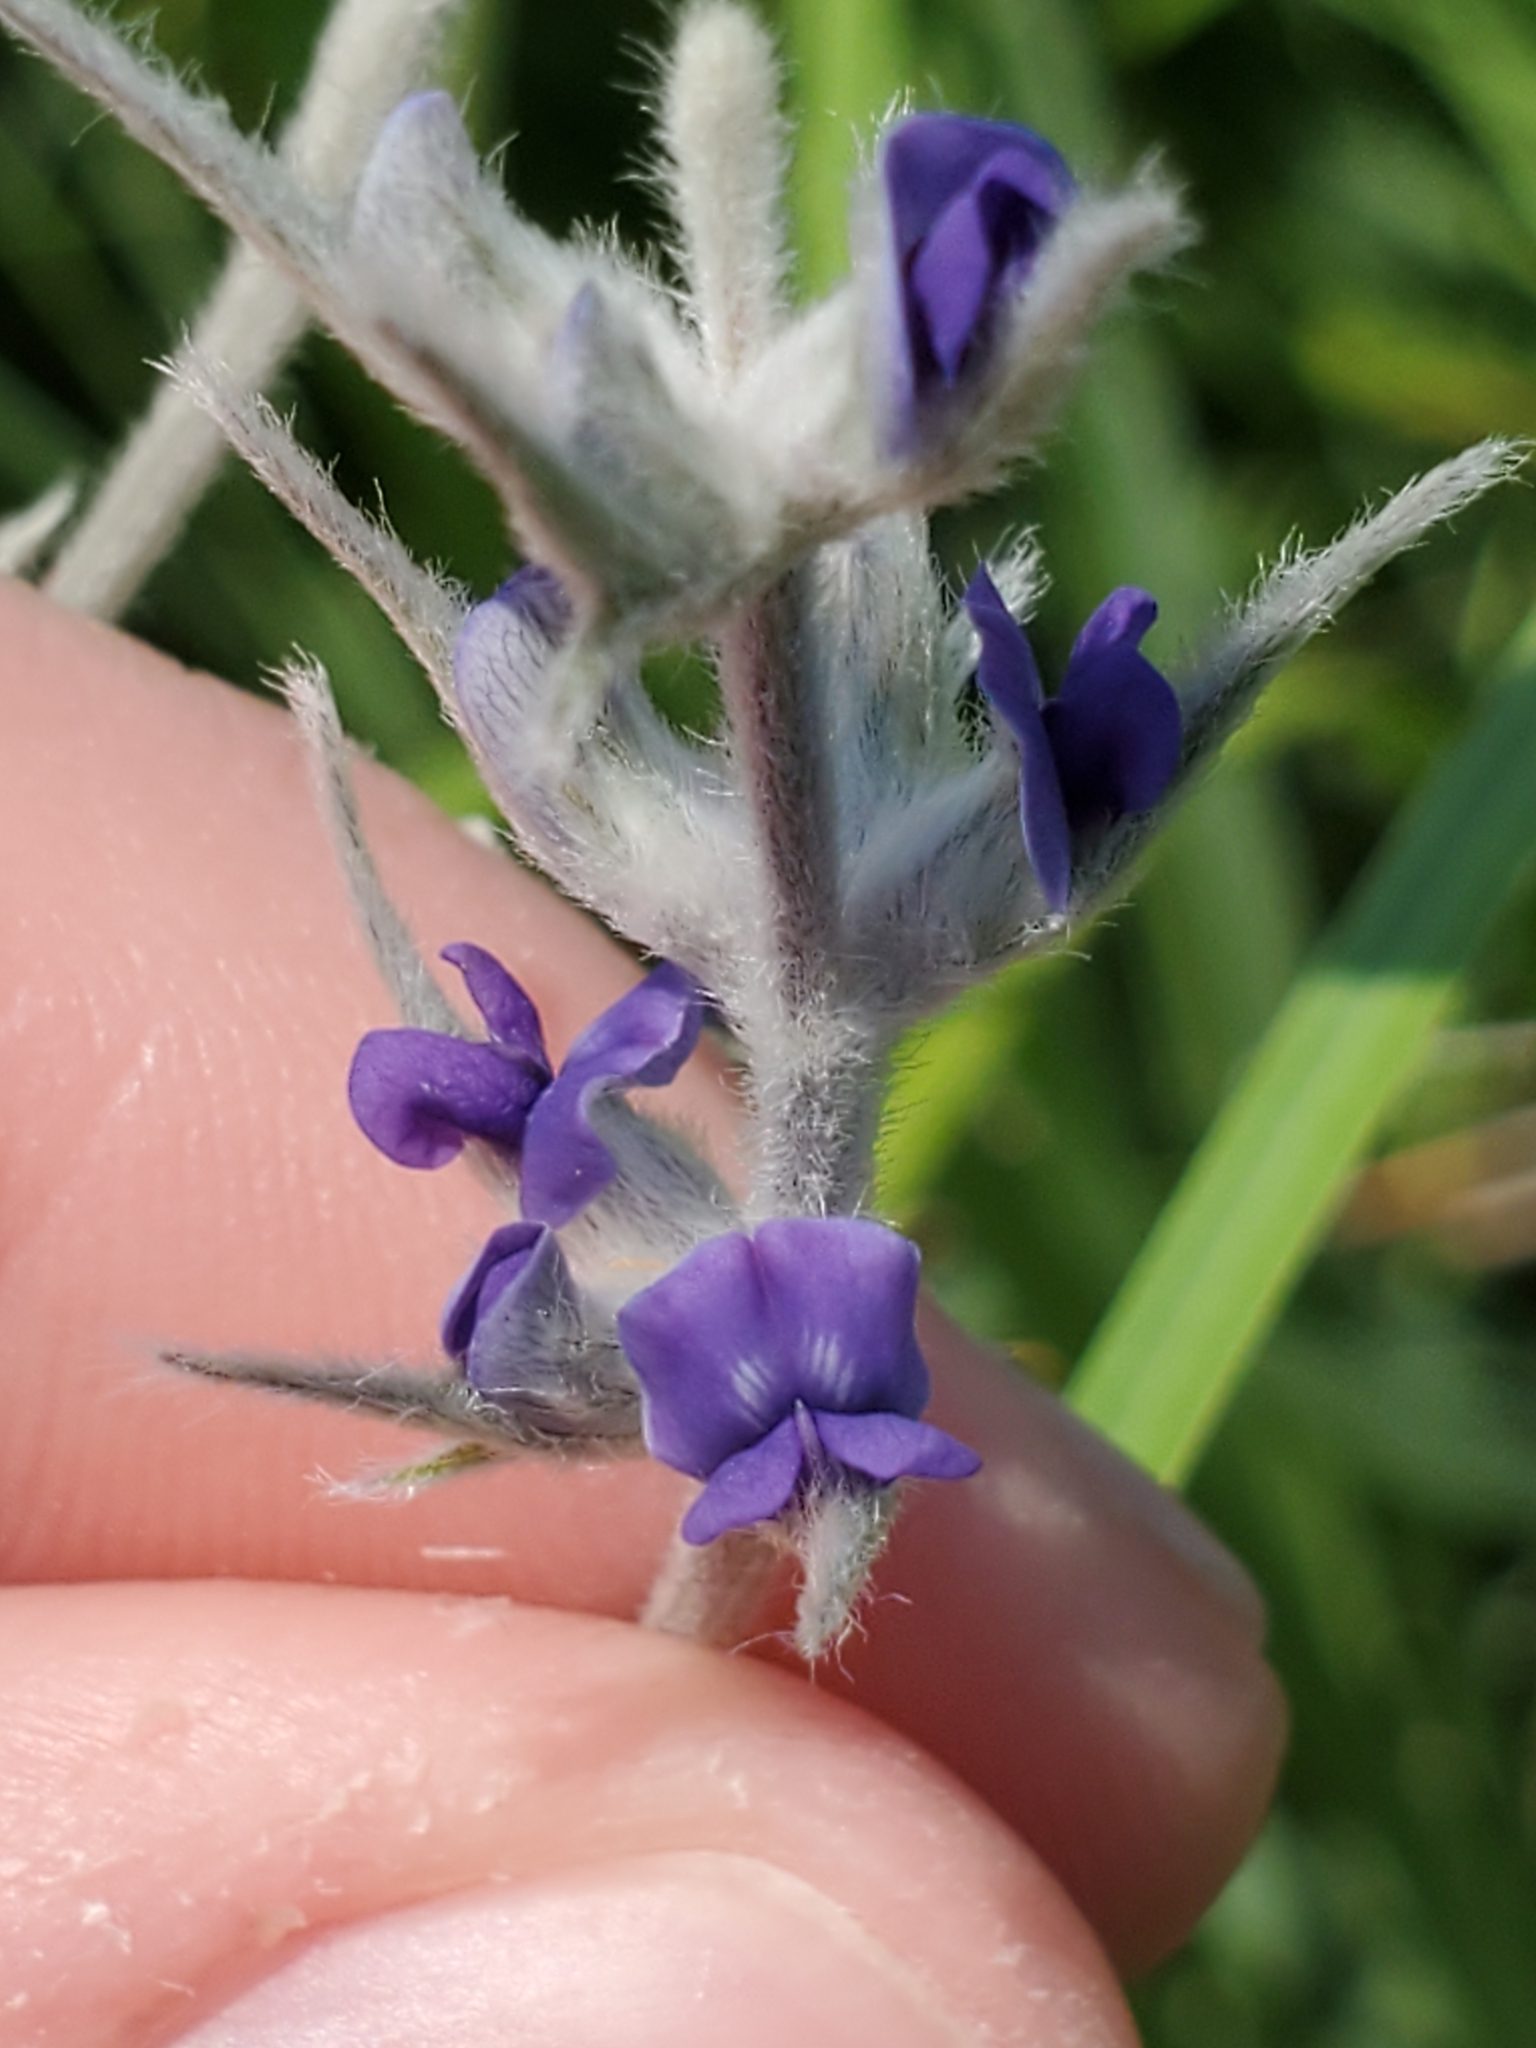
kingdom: Plantae
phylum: Tracheophyta
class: Magnoliopsida
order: Fabales
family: Fabaceae
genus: Pediomelum
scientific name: Pediomelum argophyllum
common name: Silver-leaved indian breadroot
